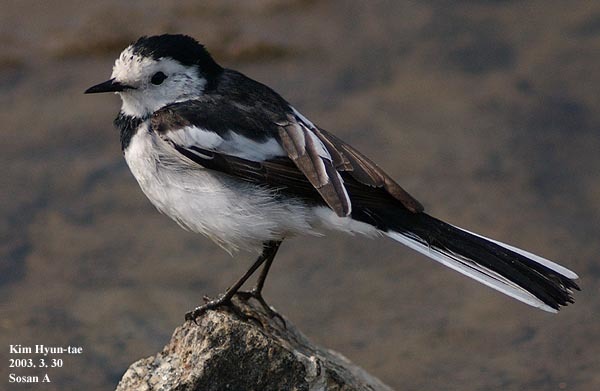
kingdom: Animalia
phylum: Chordata
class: Aves
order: Passeriformes
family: Motacillidae
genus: Motacilla
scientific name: Motacilla alba
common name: White wagtail
